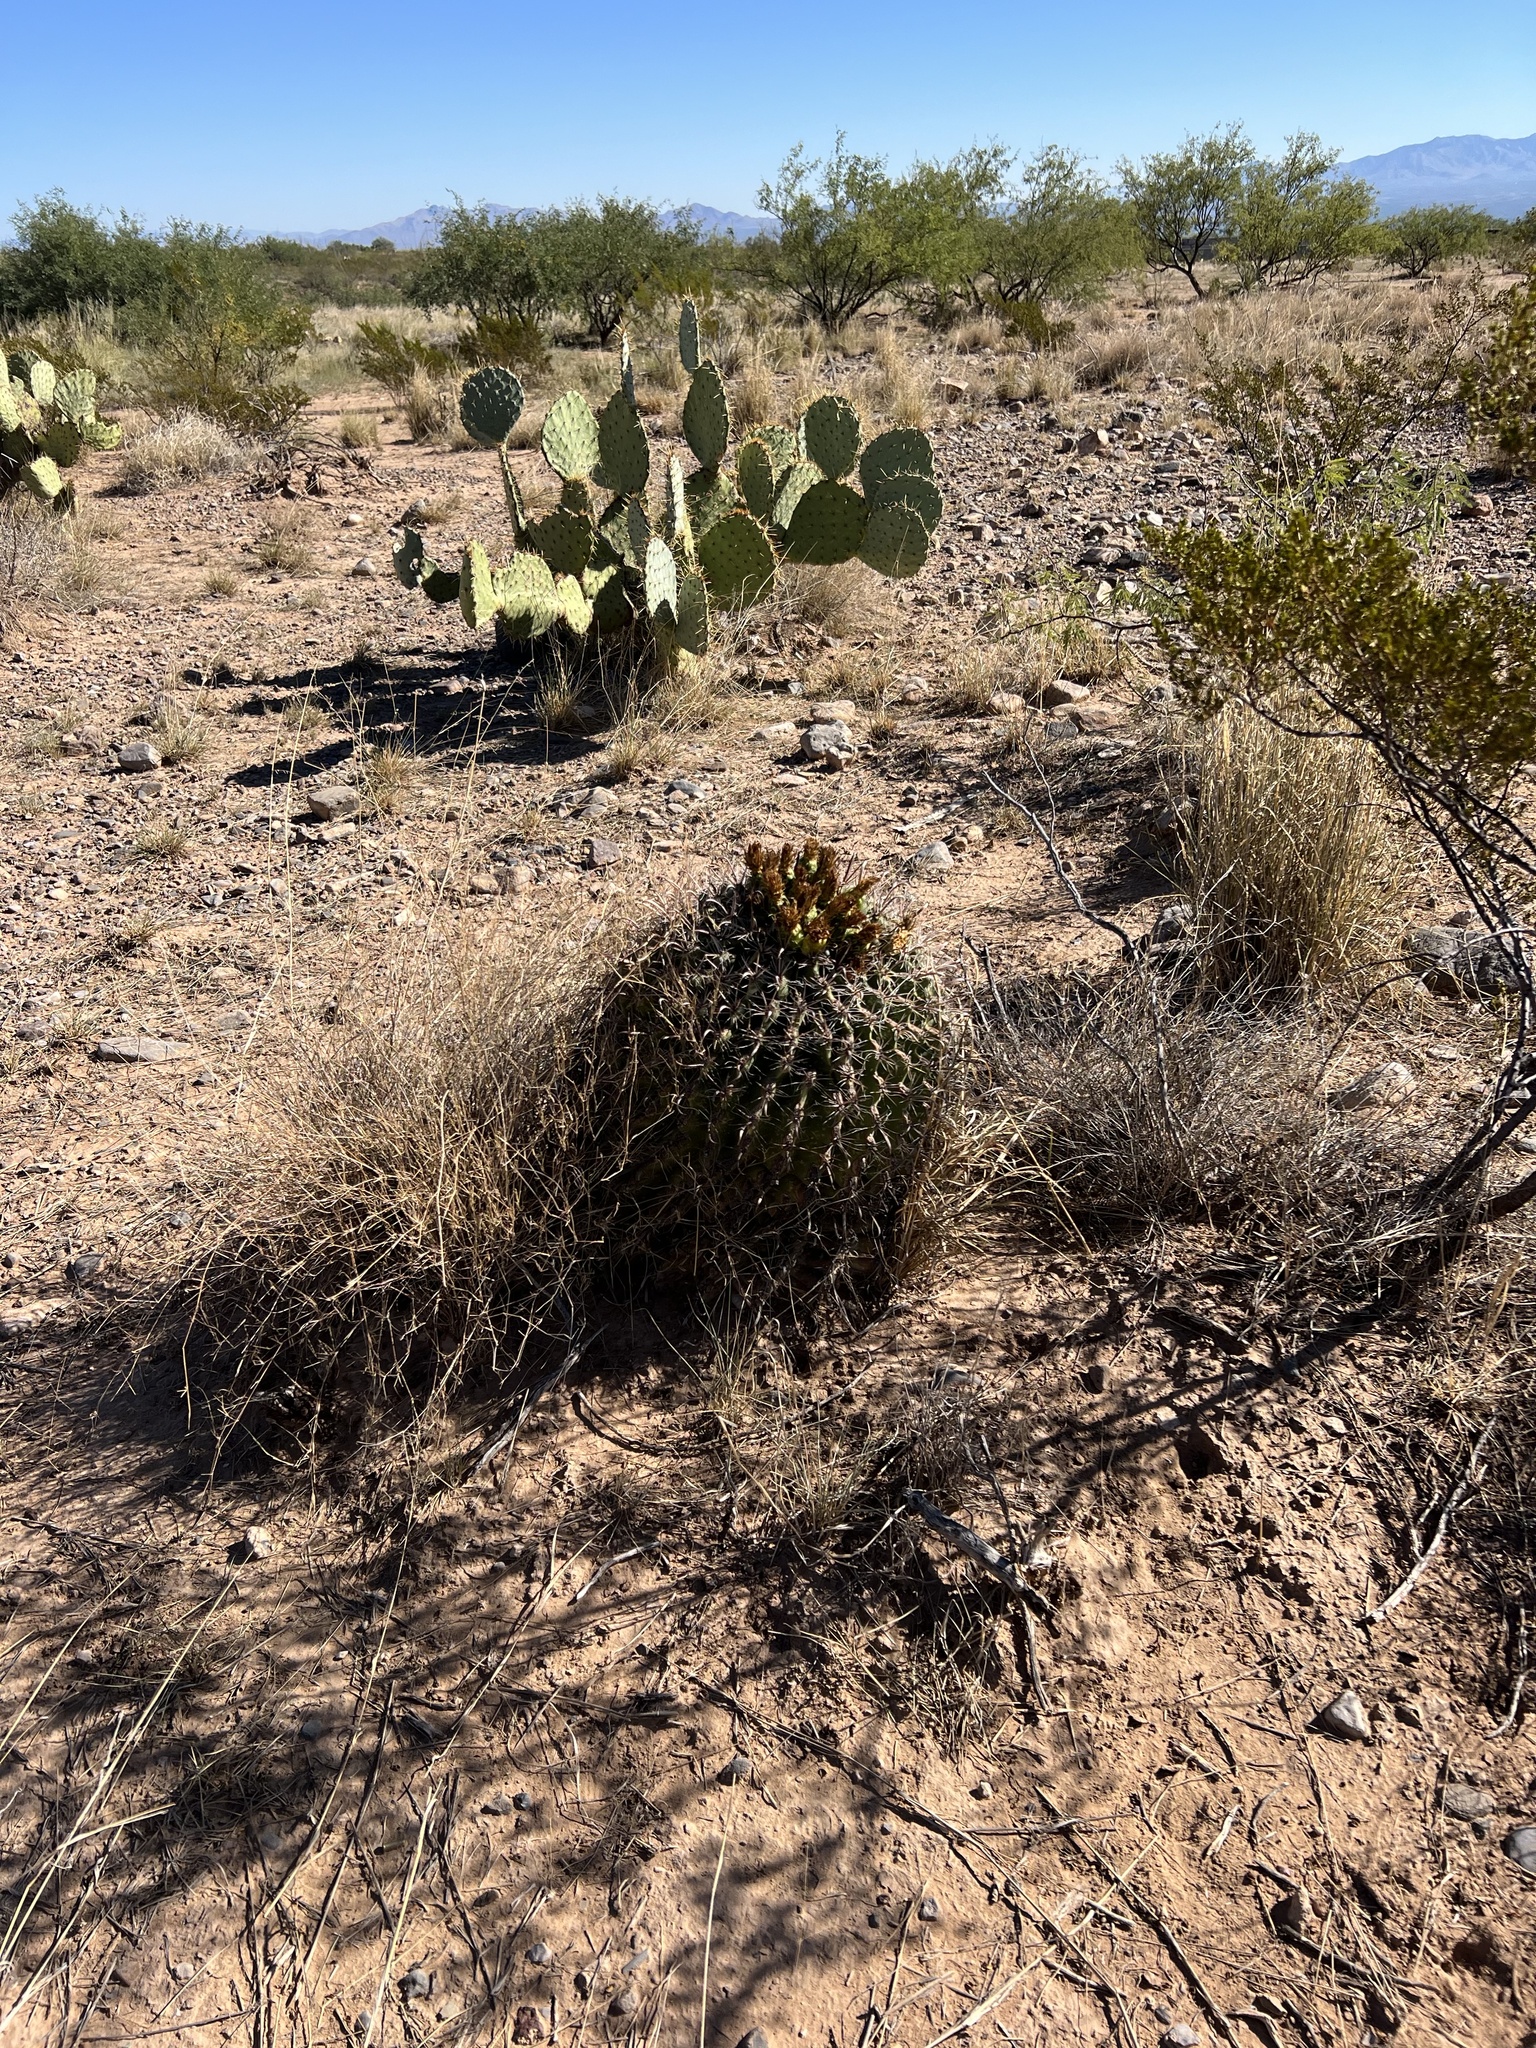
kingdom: Plantae
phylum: Tracheophyta
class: Magnoliopsida
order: Caryophyllales
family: Cactaceae
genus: Ferocactus
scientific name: Ferocactus wislizeni
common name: Candy barrel cactus
